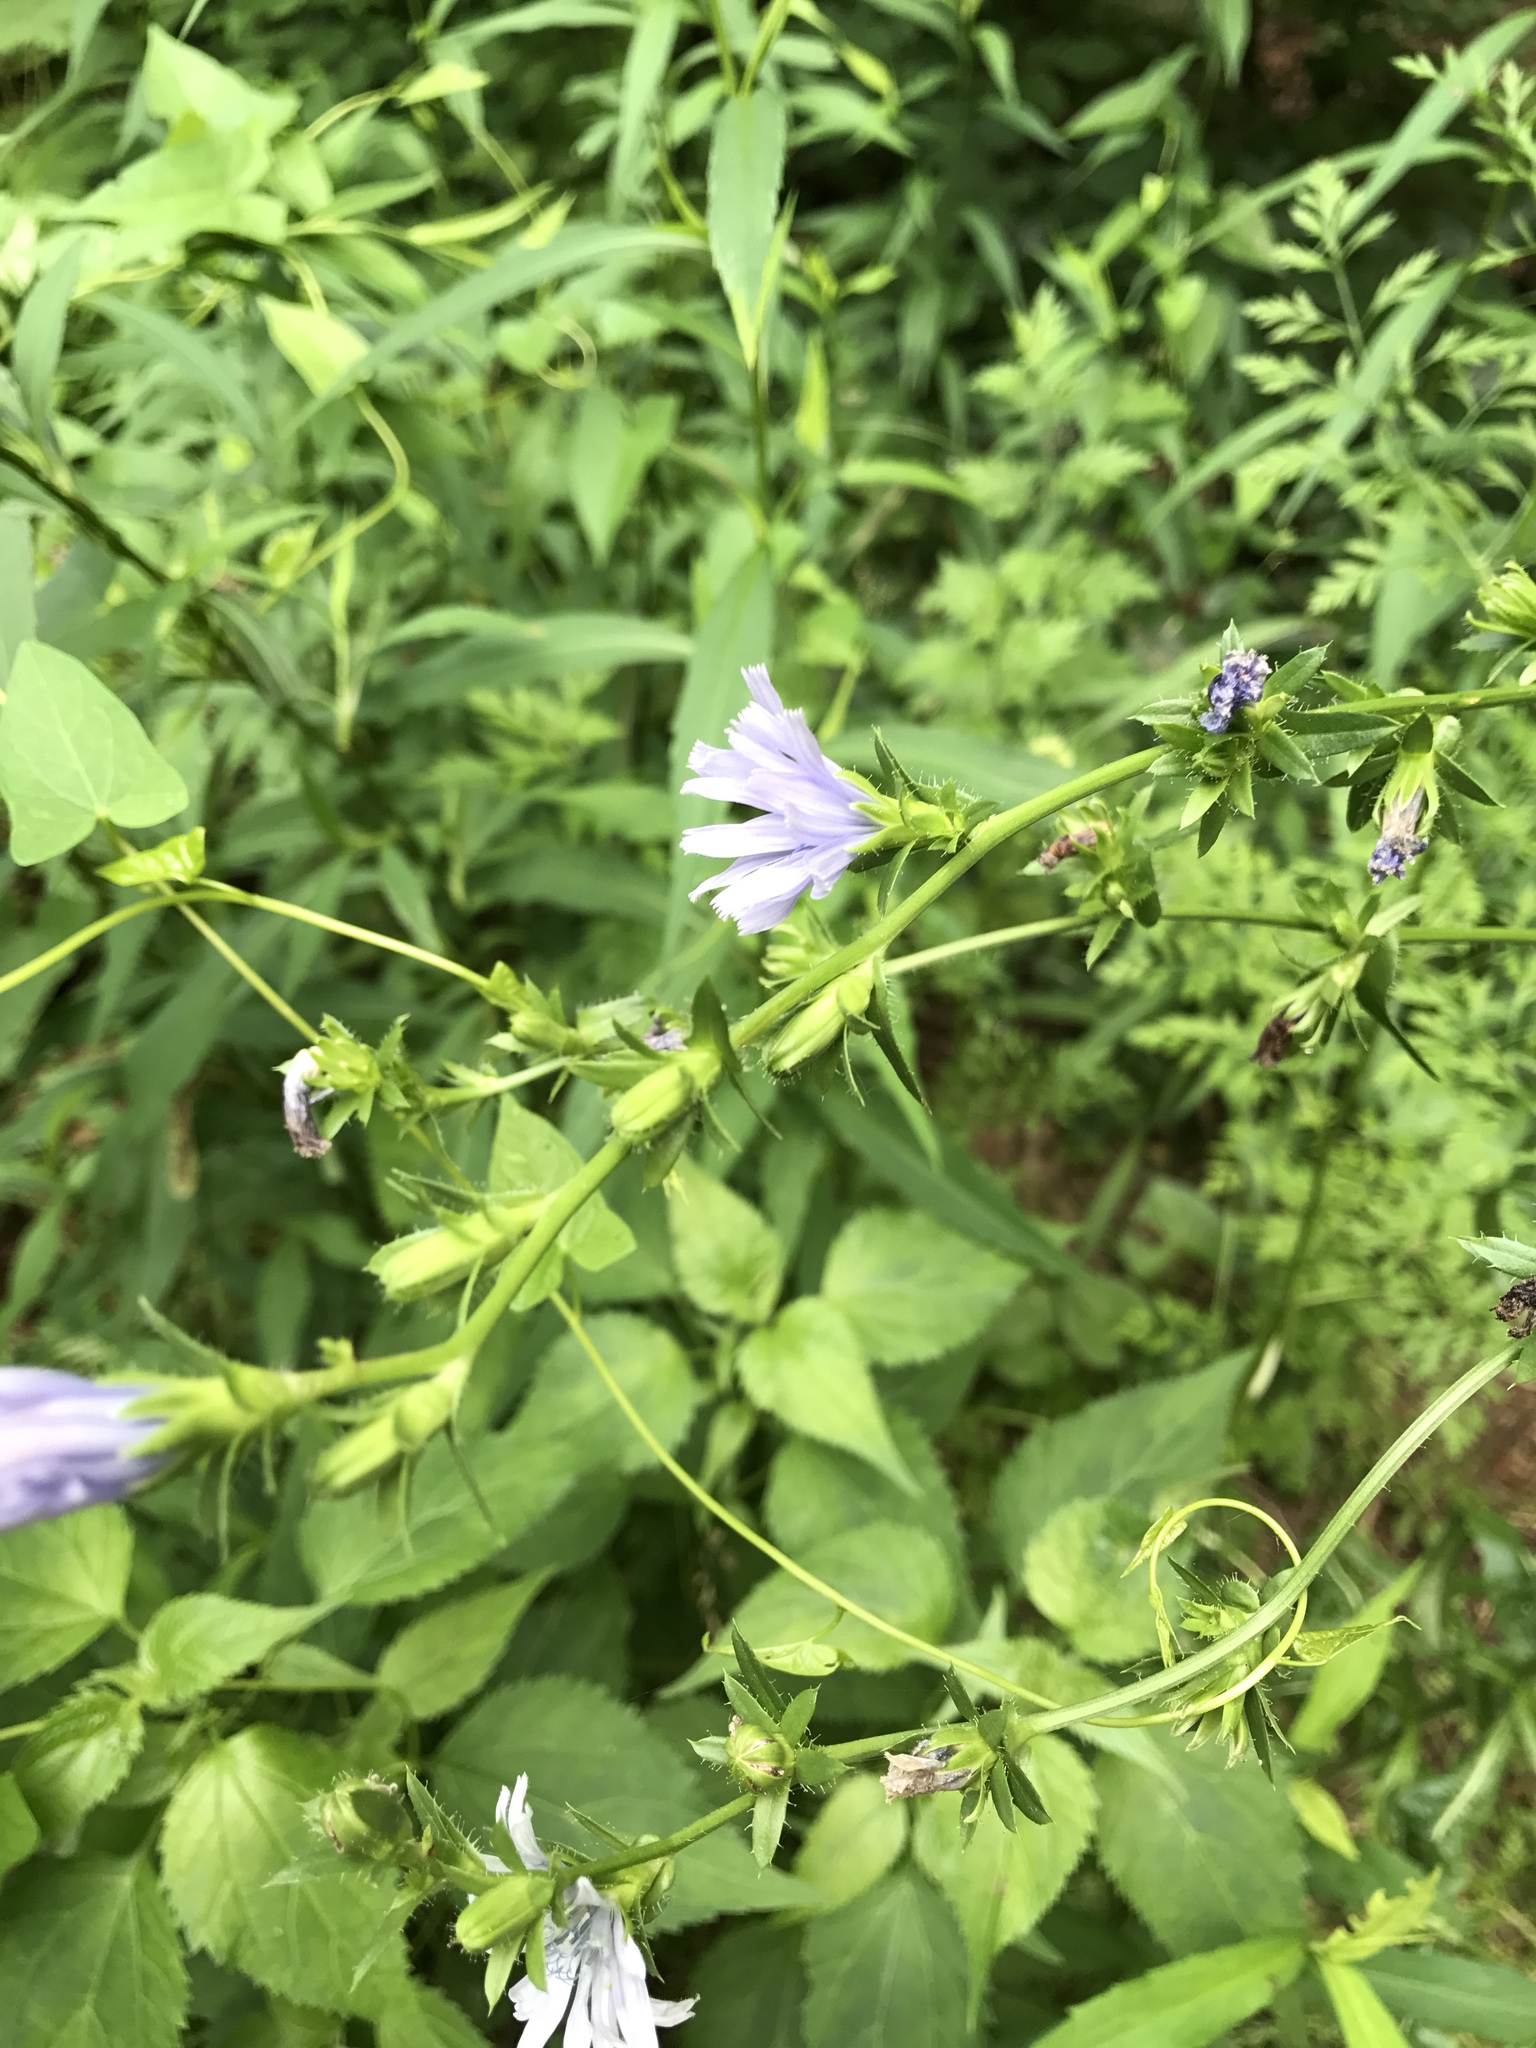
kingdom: Plantae
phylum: Tracheophyta
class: Magnoliopsida
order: Asterales
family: Asteraceae
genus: Cichorium
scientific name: Cichorium intybus
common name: Chicory
